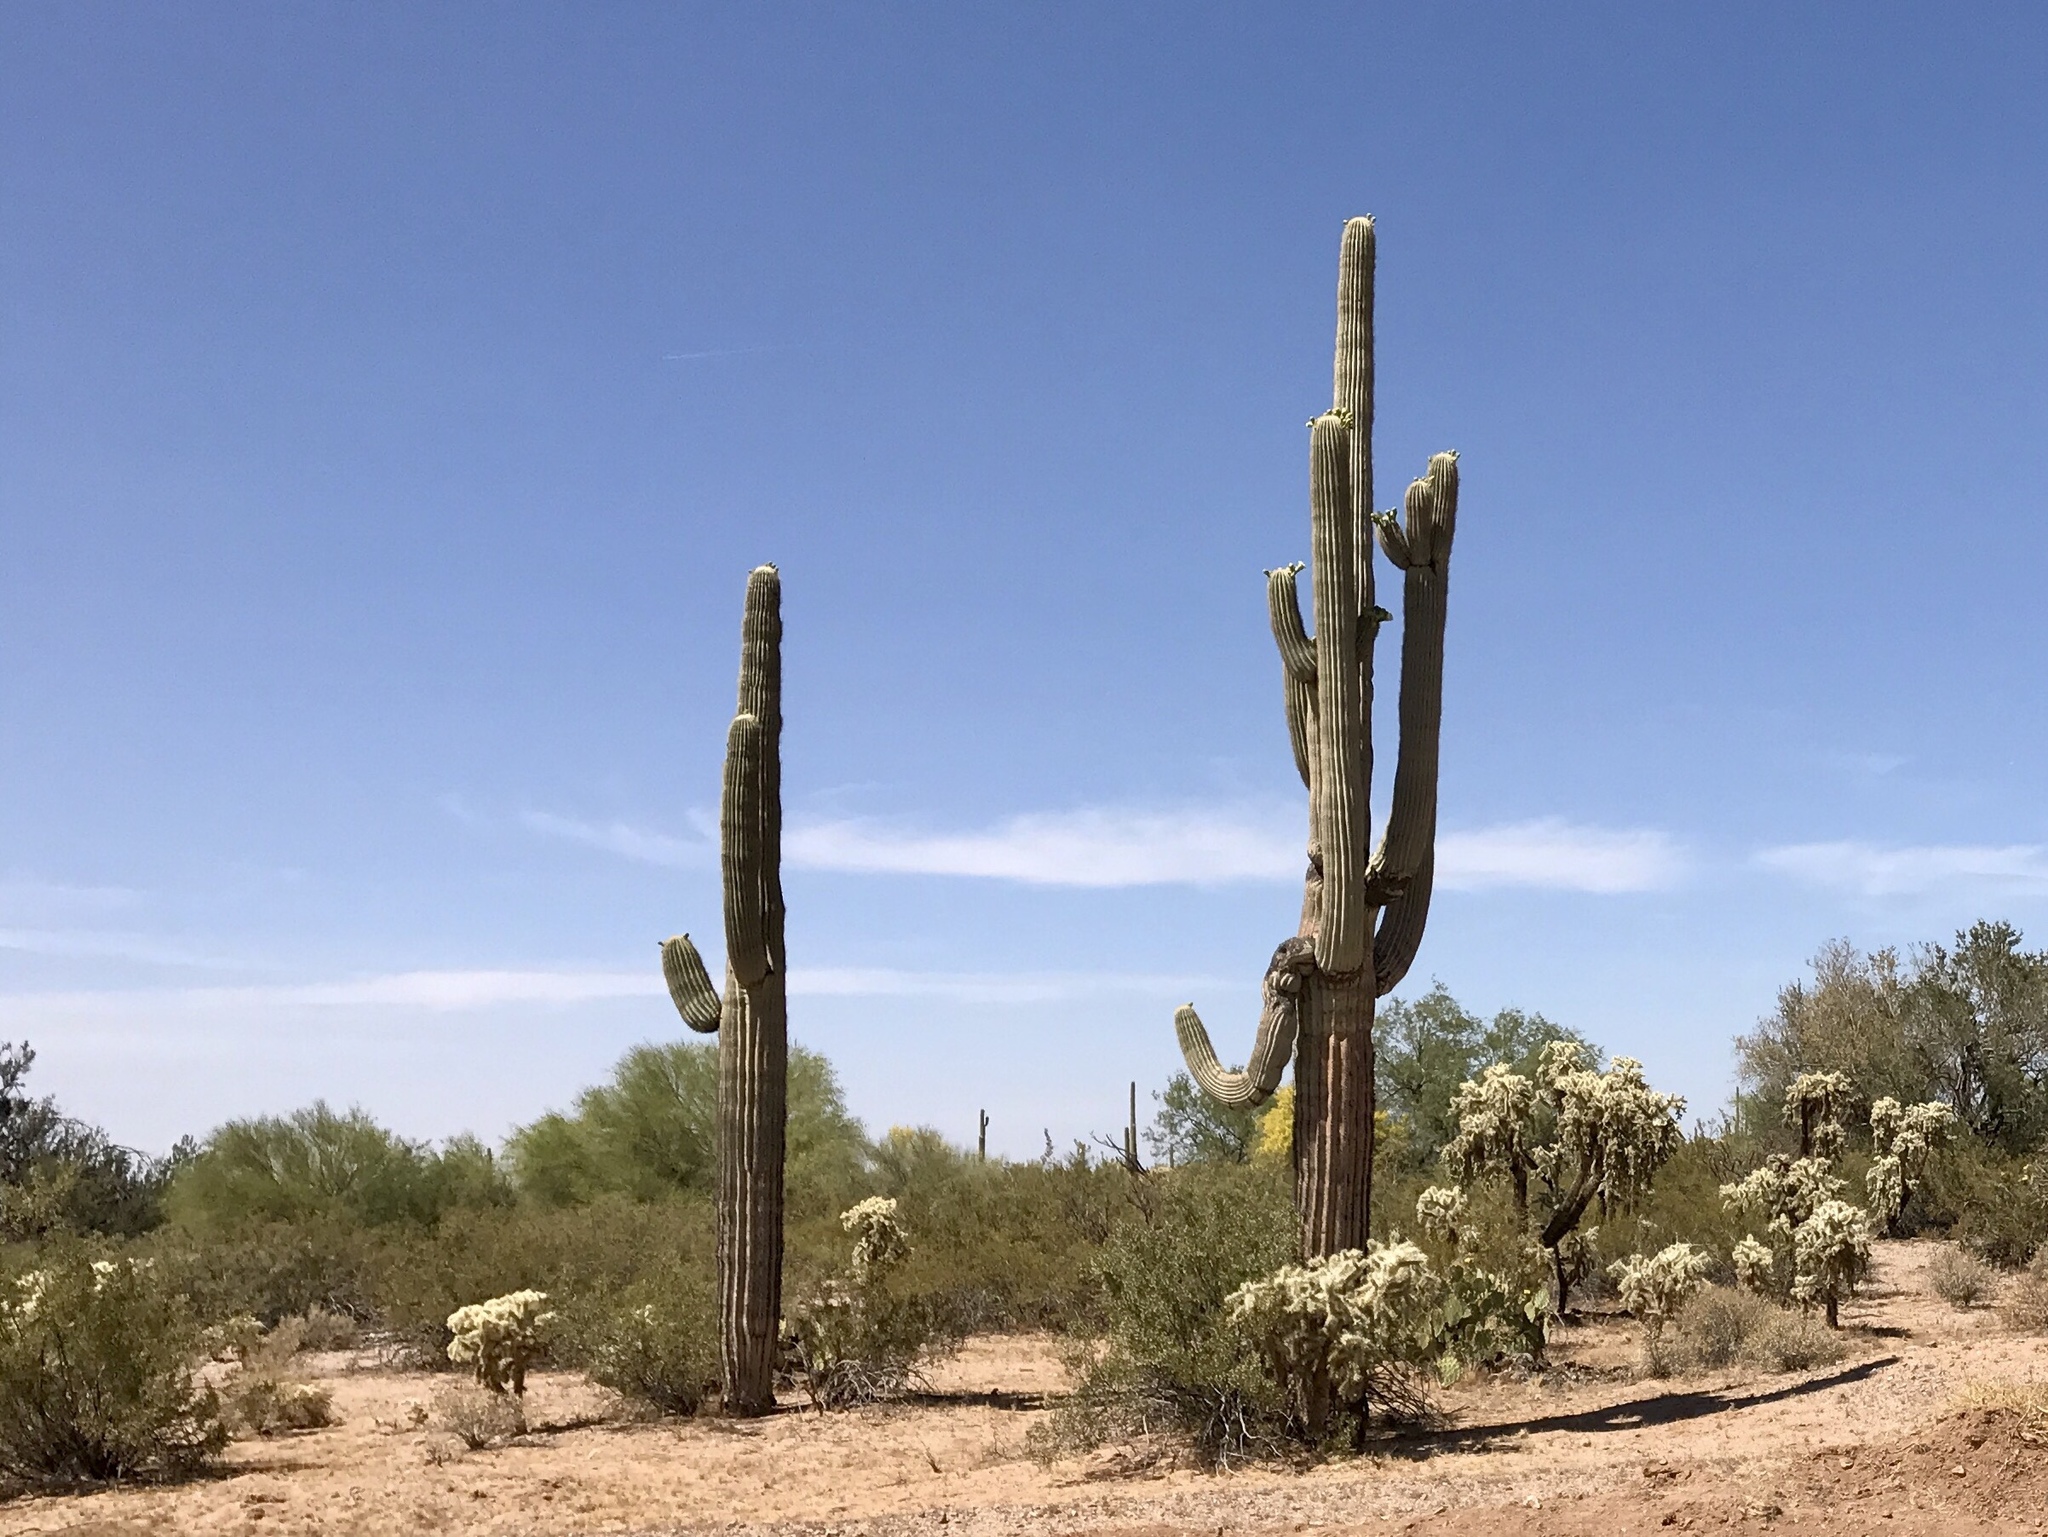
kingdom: Plantae
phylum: Tracheophyta
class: Magnoliopsida
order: Caryophyllales
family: Cactaceae
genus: Carnegiea
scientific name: Carnegiea gigantea
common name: Saguaro
